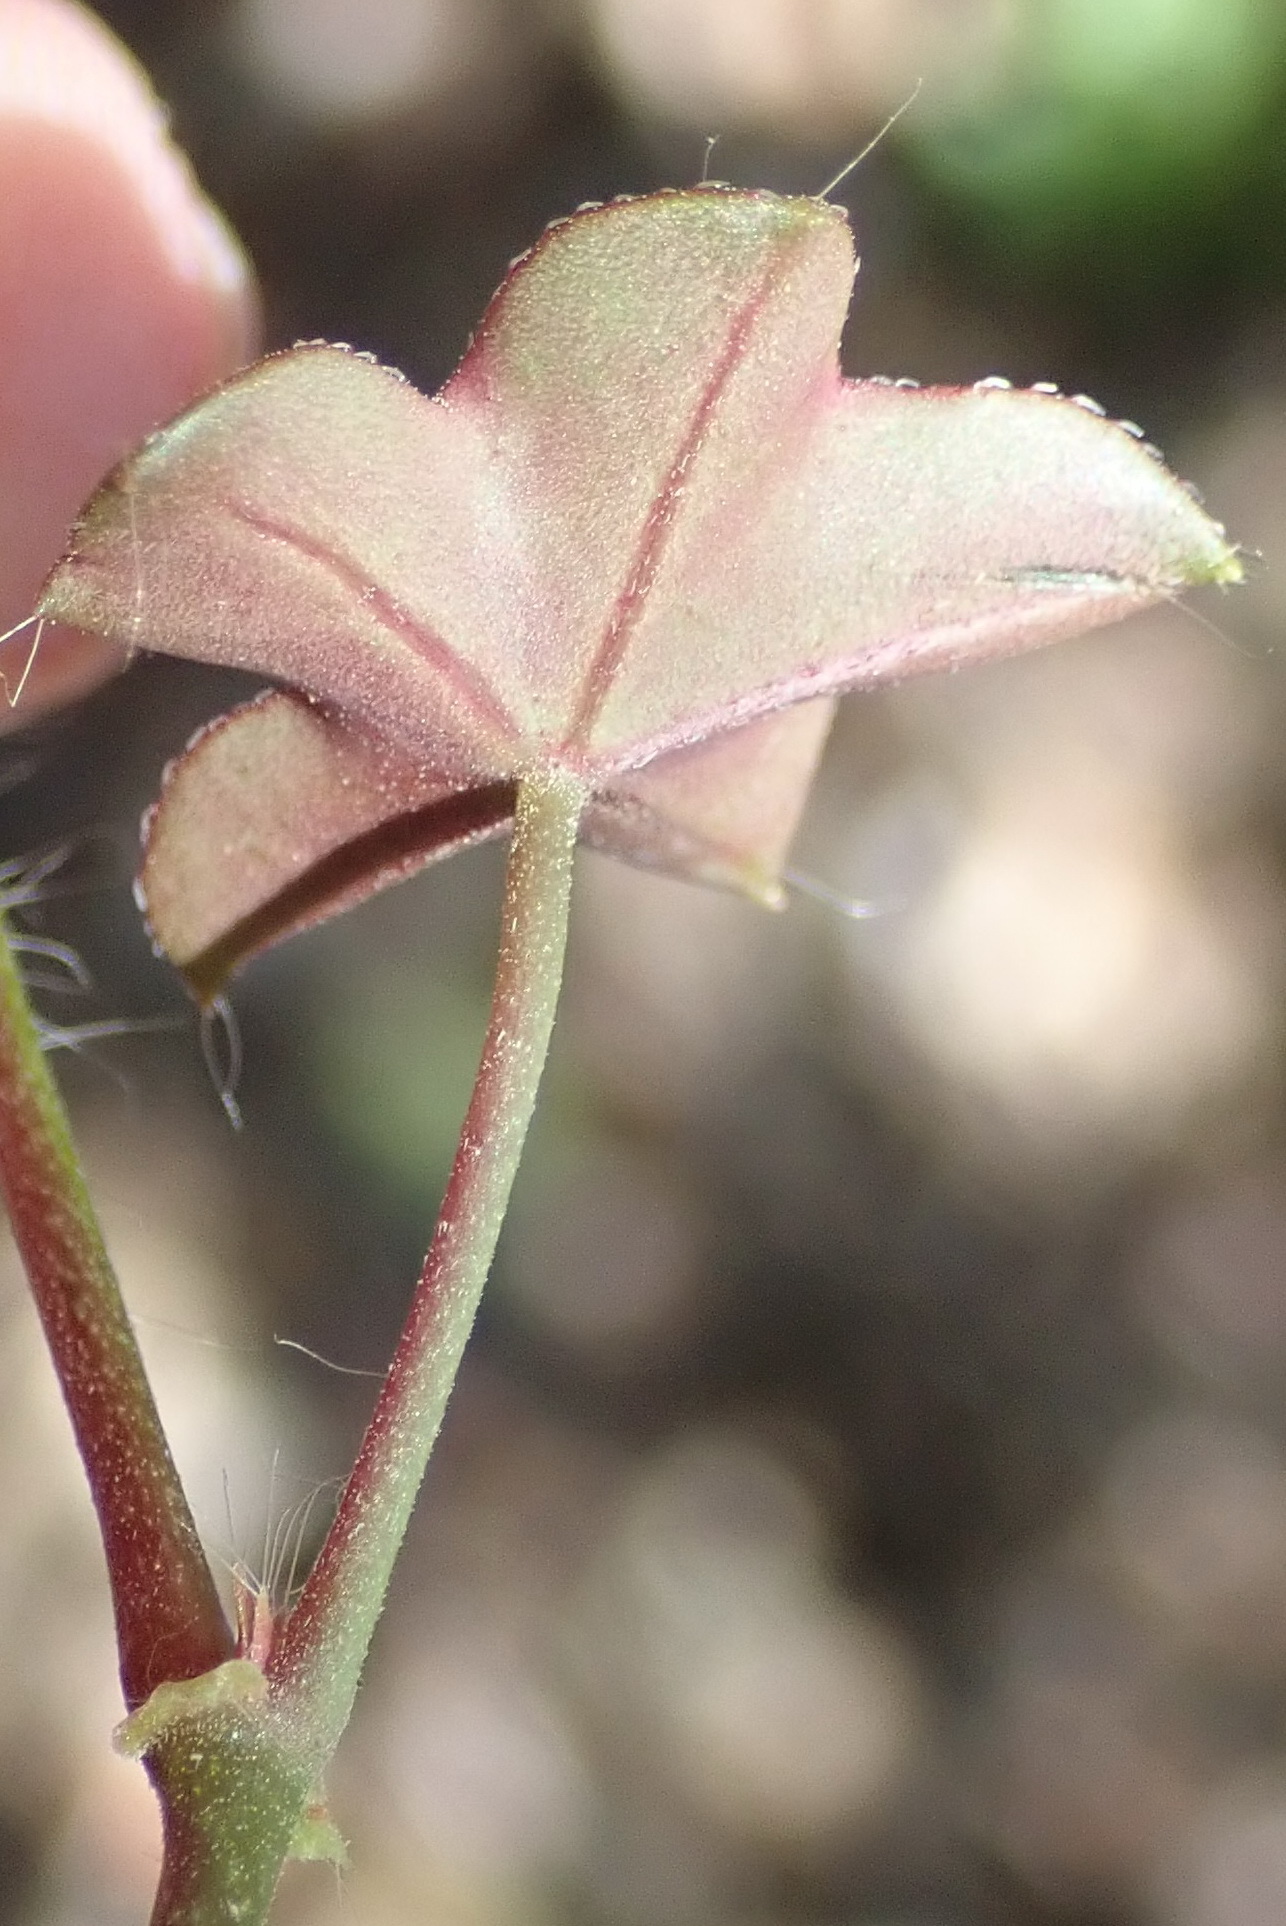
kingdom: Plantae
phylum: Tracheophyta
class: Magnoliopsida
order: Geraniales
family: Geraniaceae
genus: Pelargonium
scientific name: Pelargonium peltatum
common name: Ivyleaf geranium
